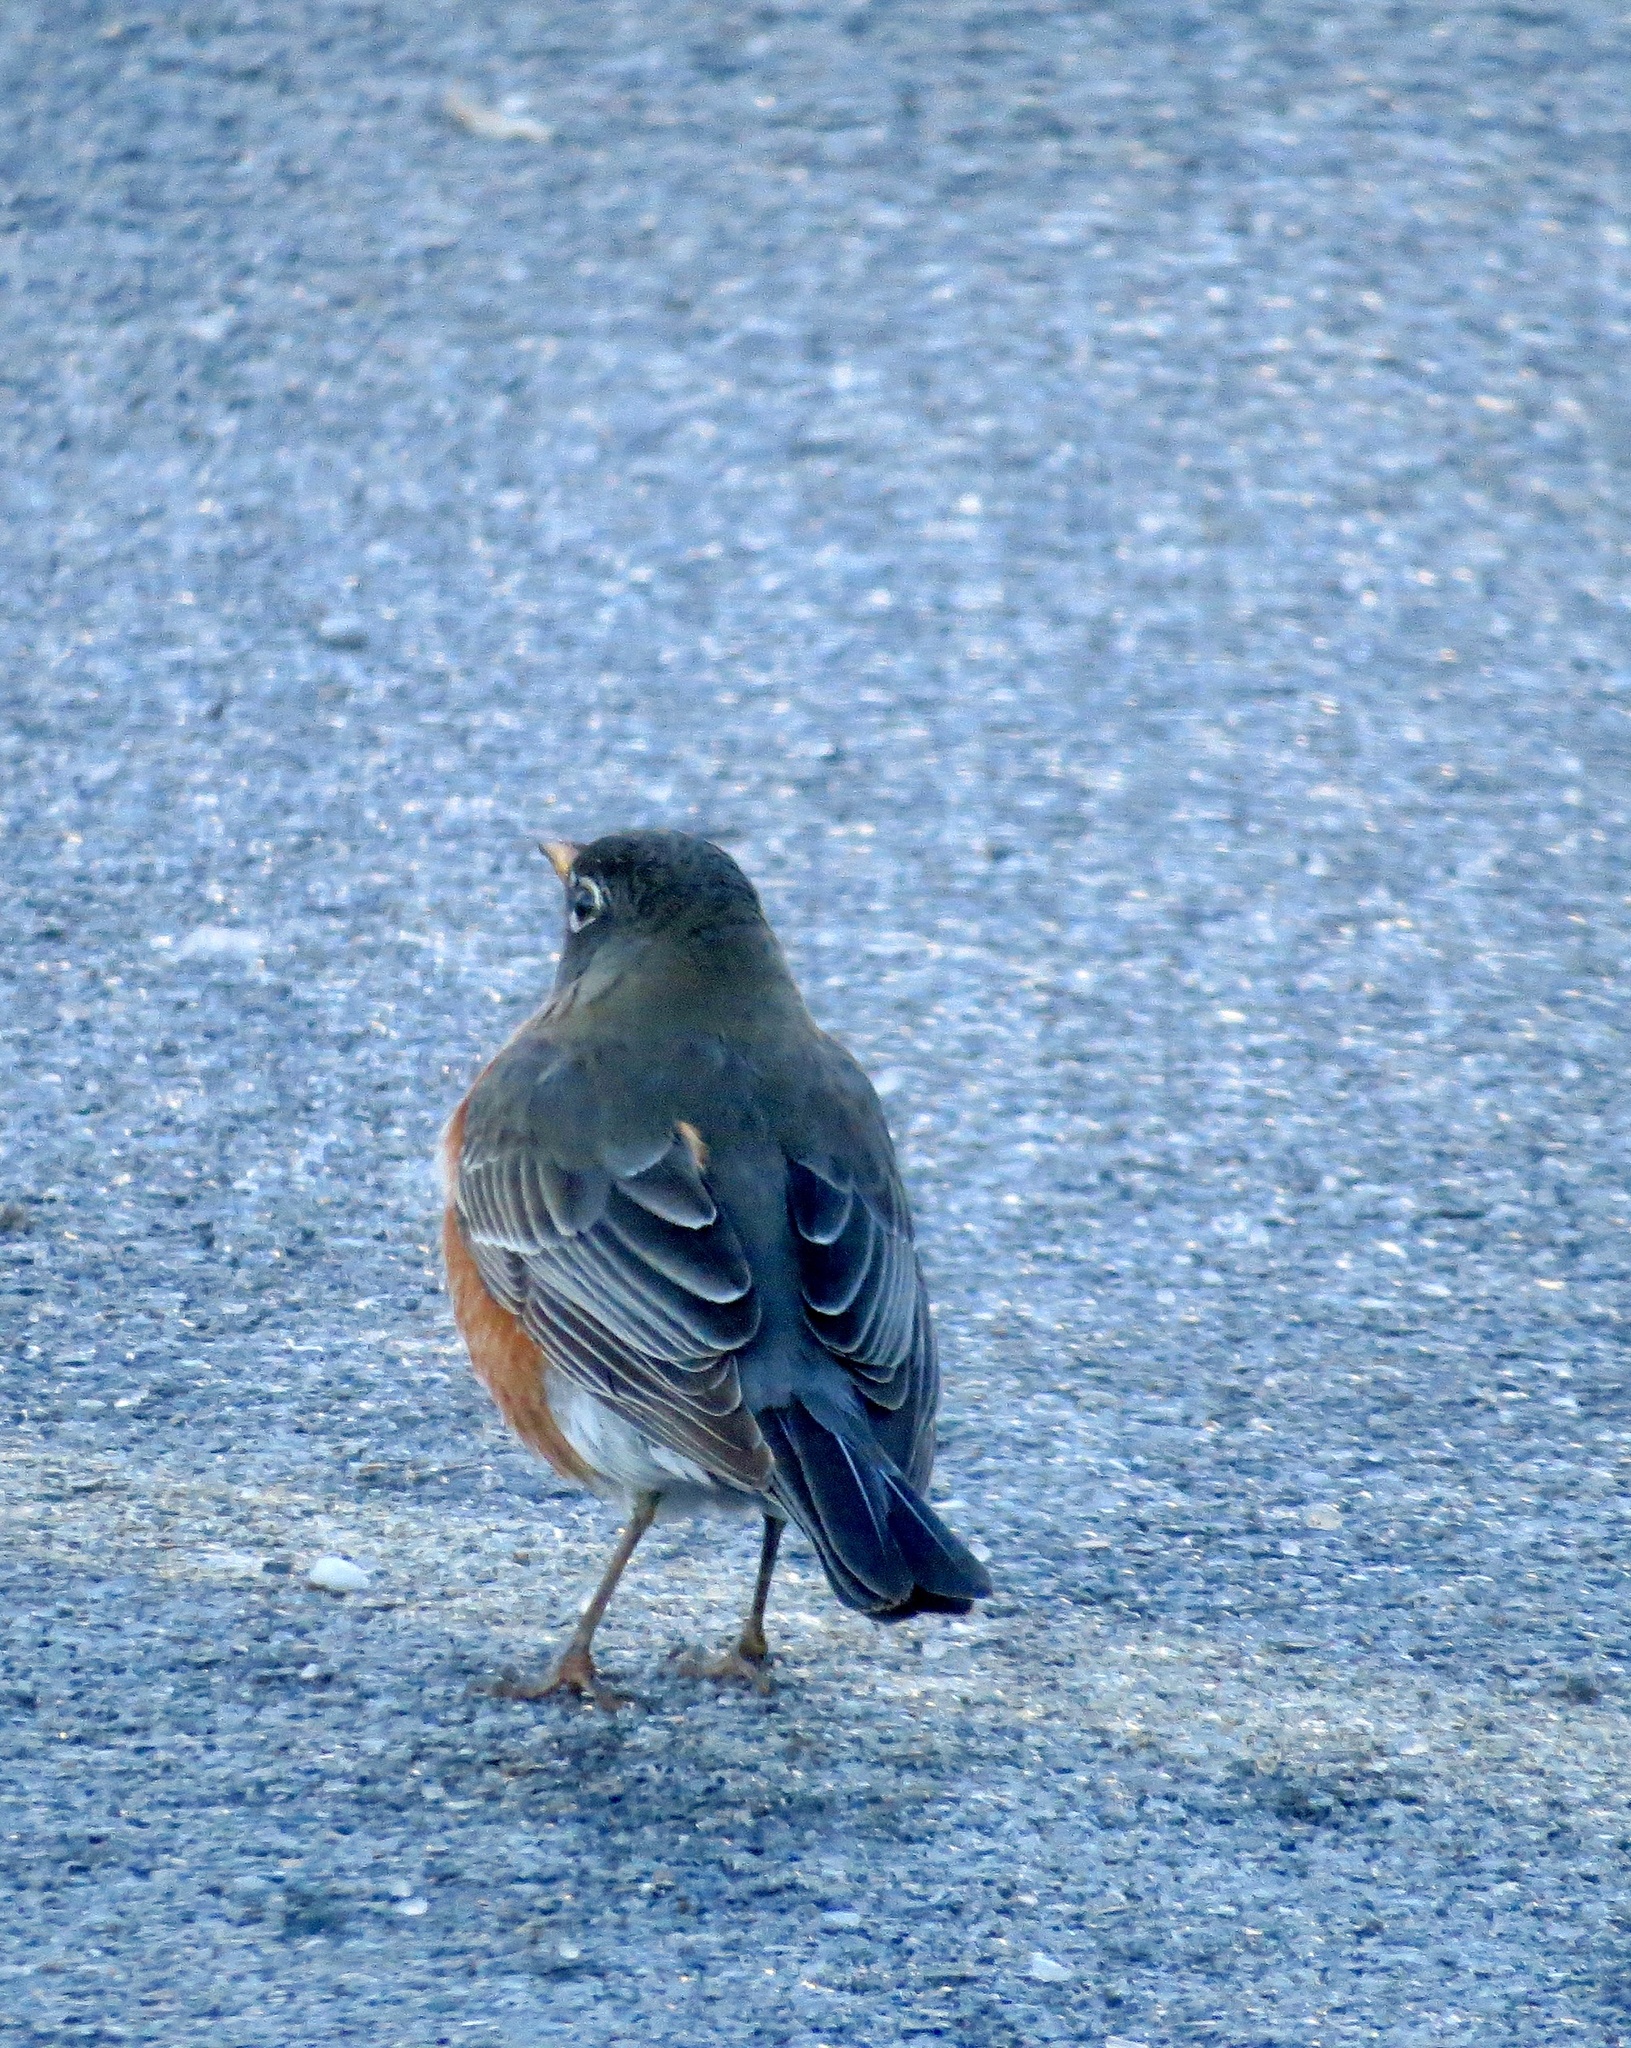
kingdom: Animalia
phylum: Chordata
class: Aves
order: Passeriformes
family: Turdidae
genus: Turdus
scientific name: Turdus migratorius
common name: American robin
